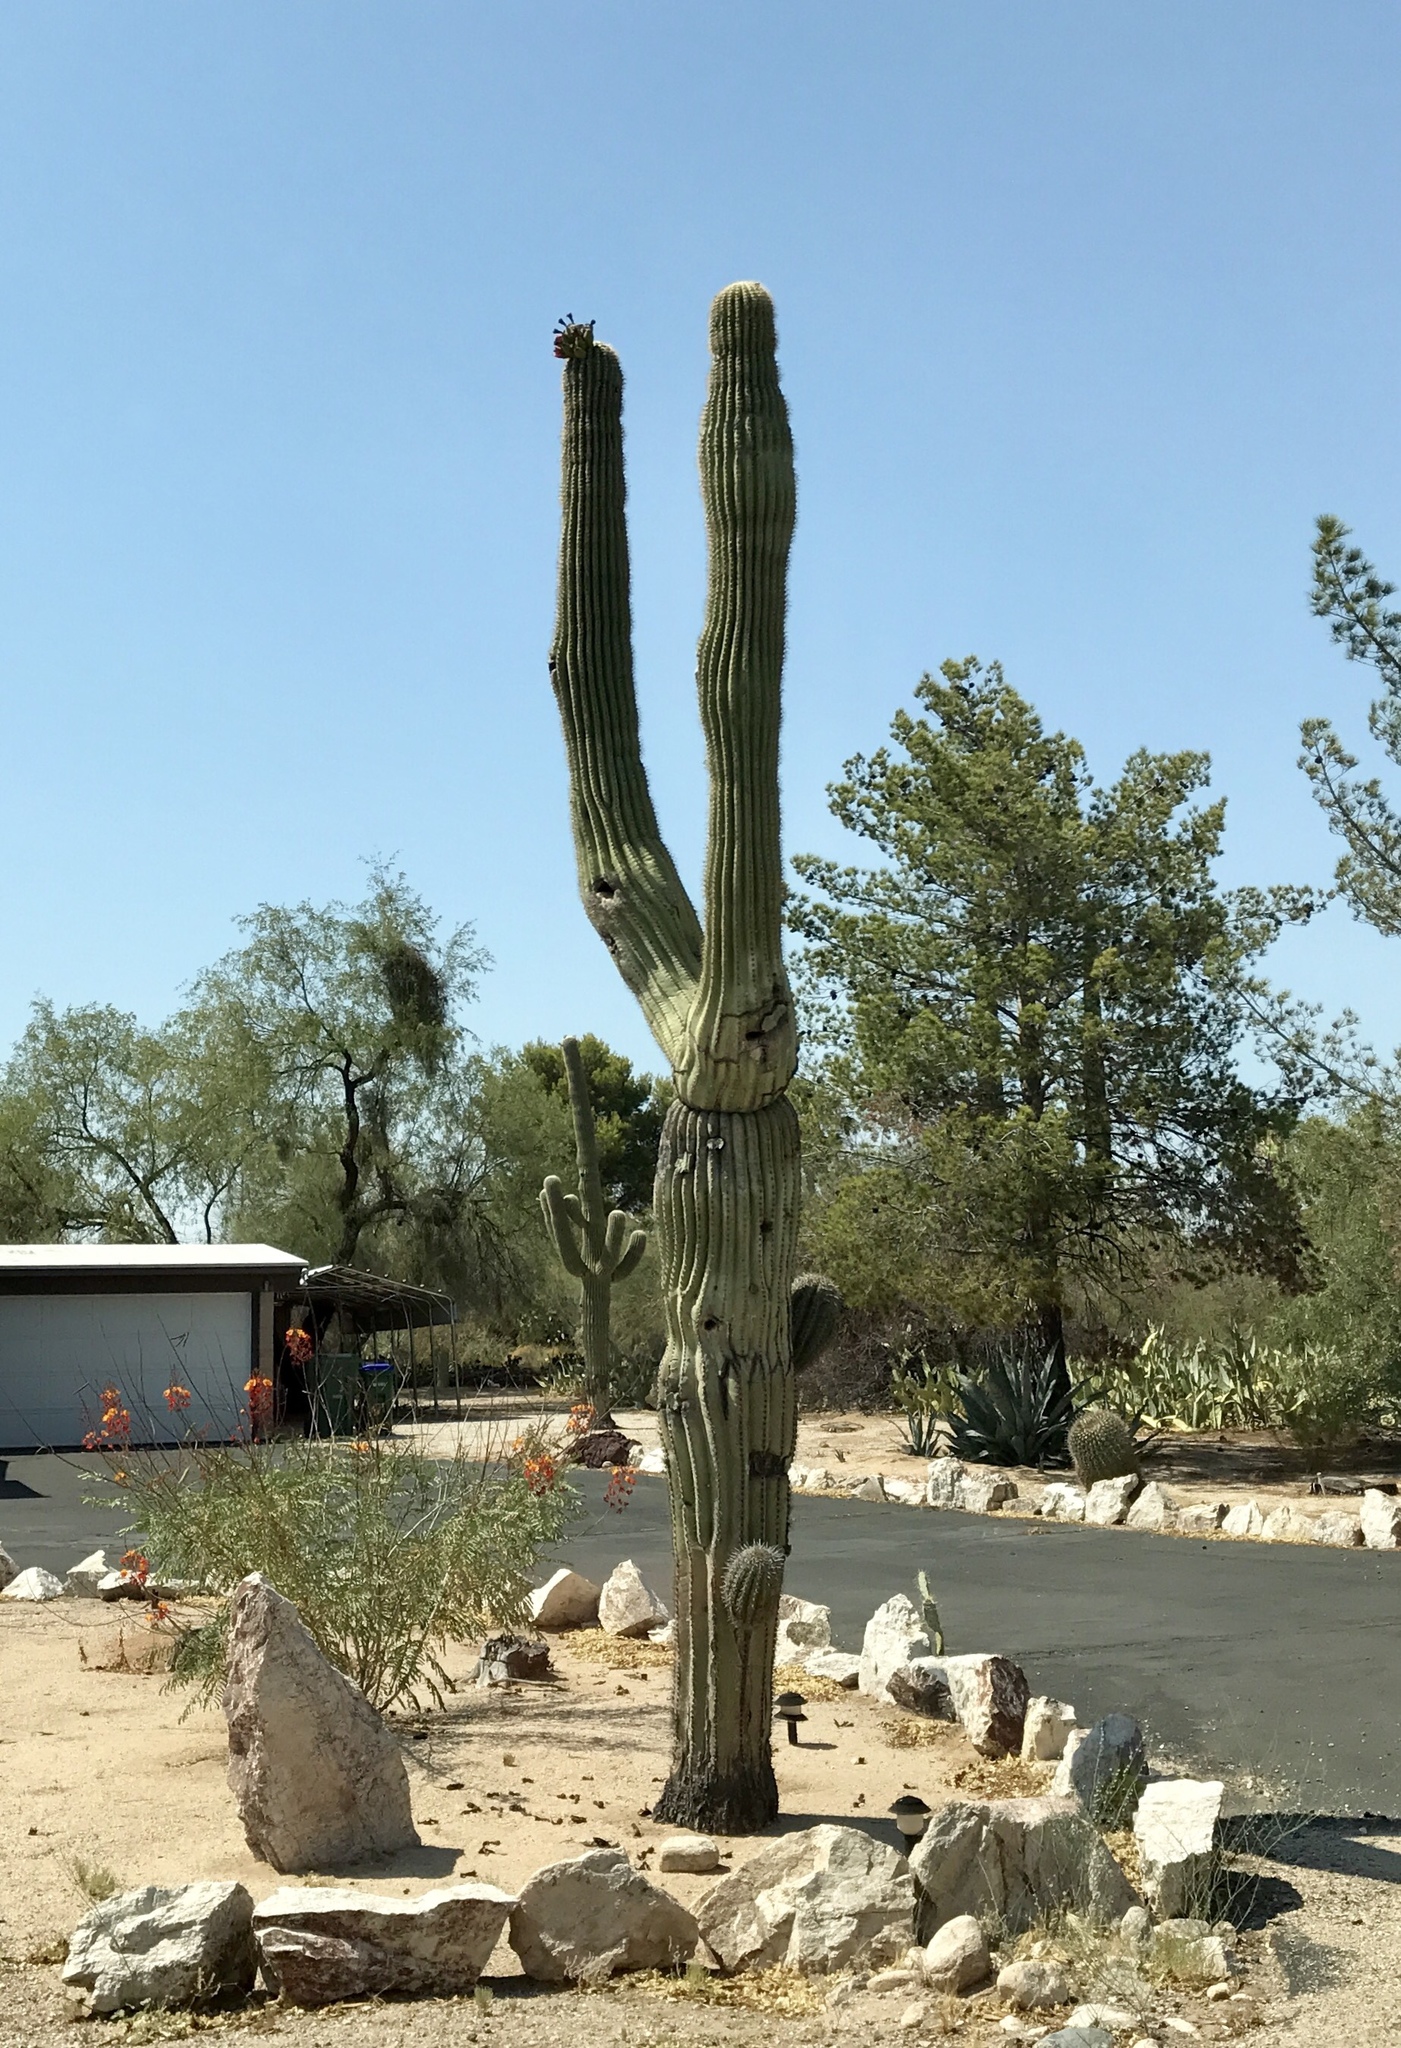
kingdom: Plantae
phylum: Tracheophyta
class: Magnoliopsida
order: Caryophyllales
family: Cactaceae
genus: Carnegiea
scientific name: Carnegiea gigantea
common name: Saguaro
